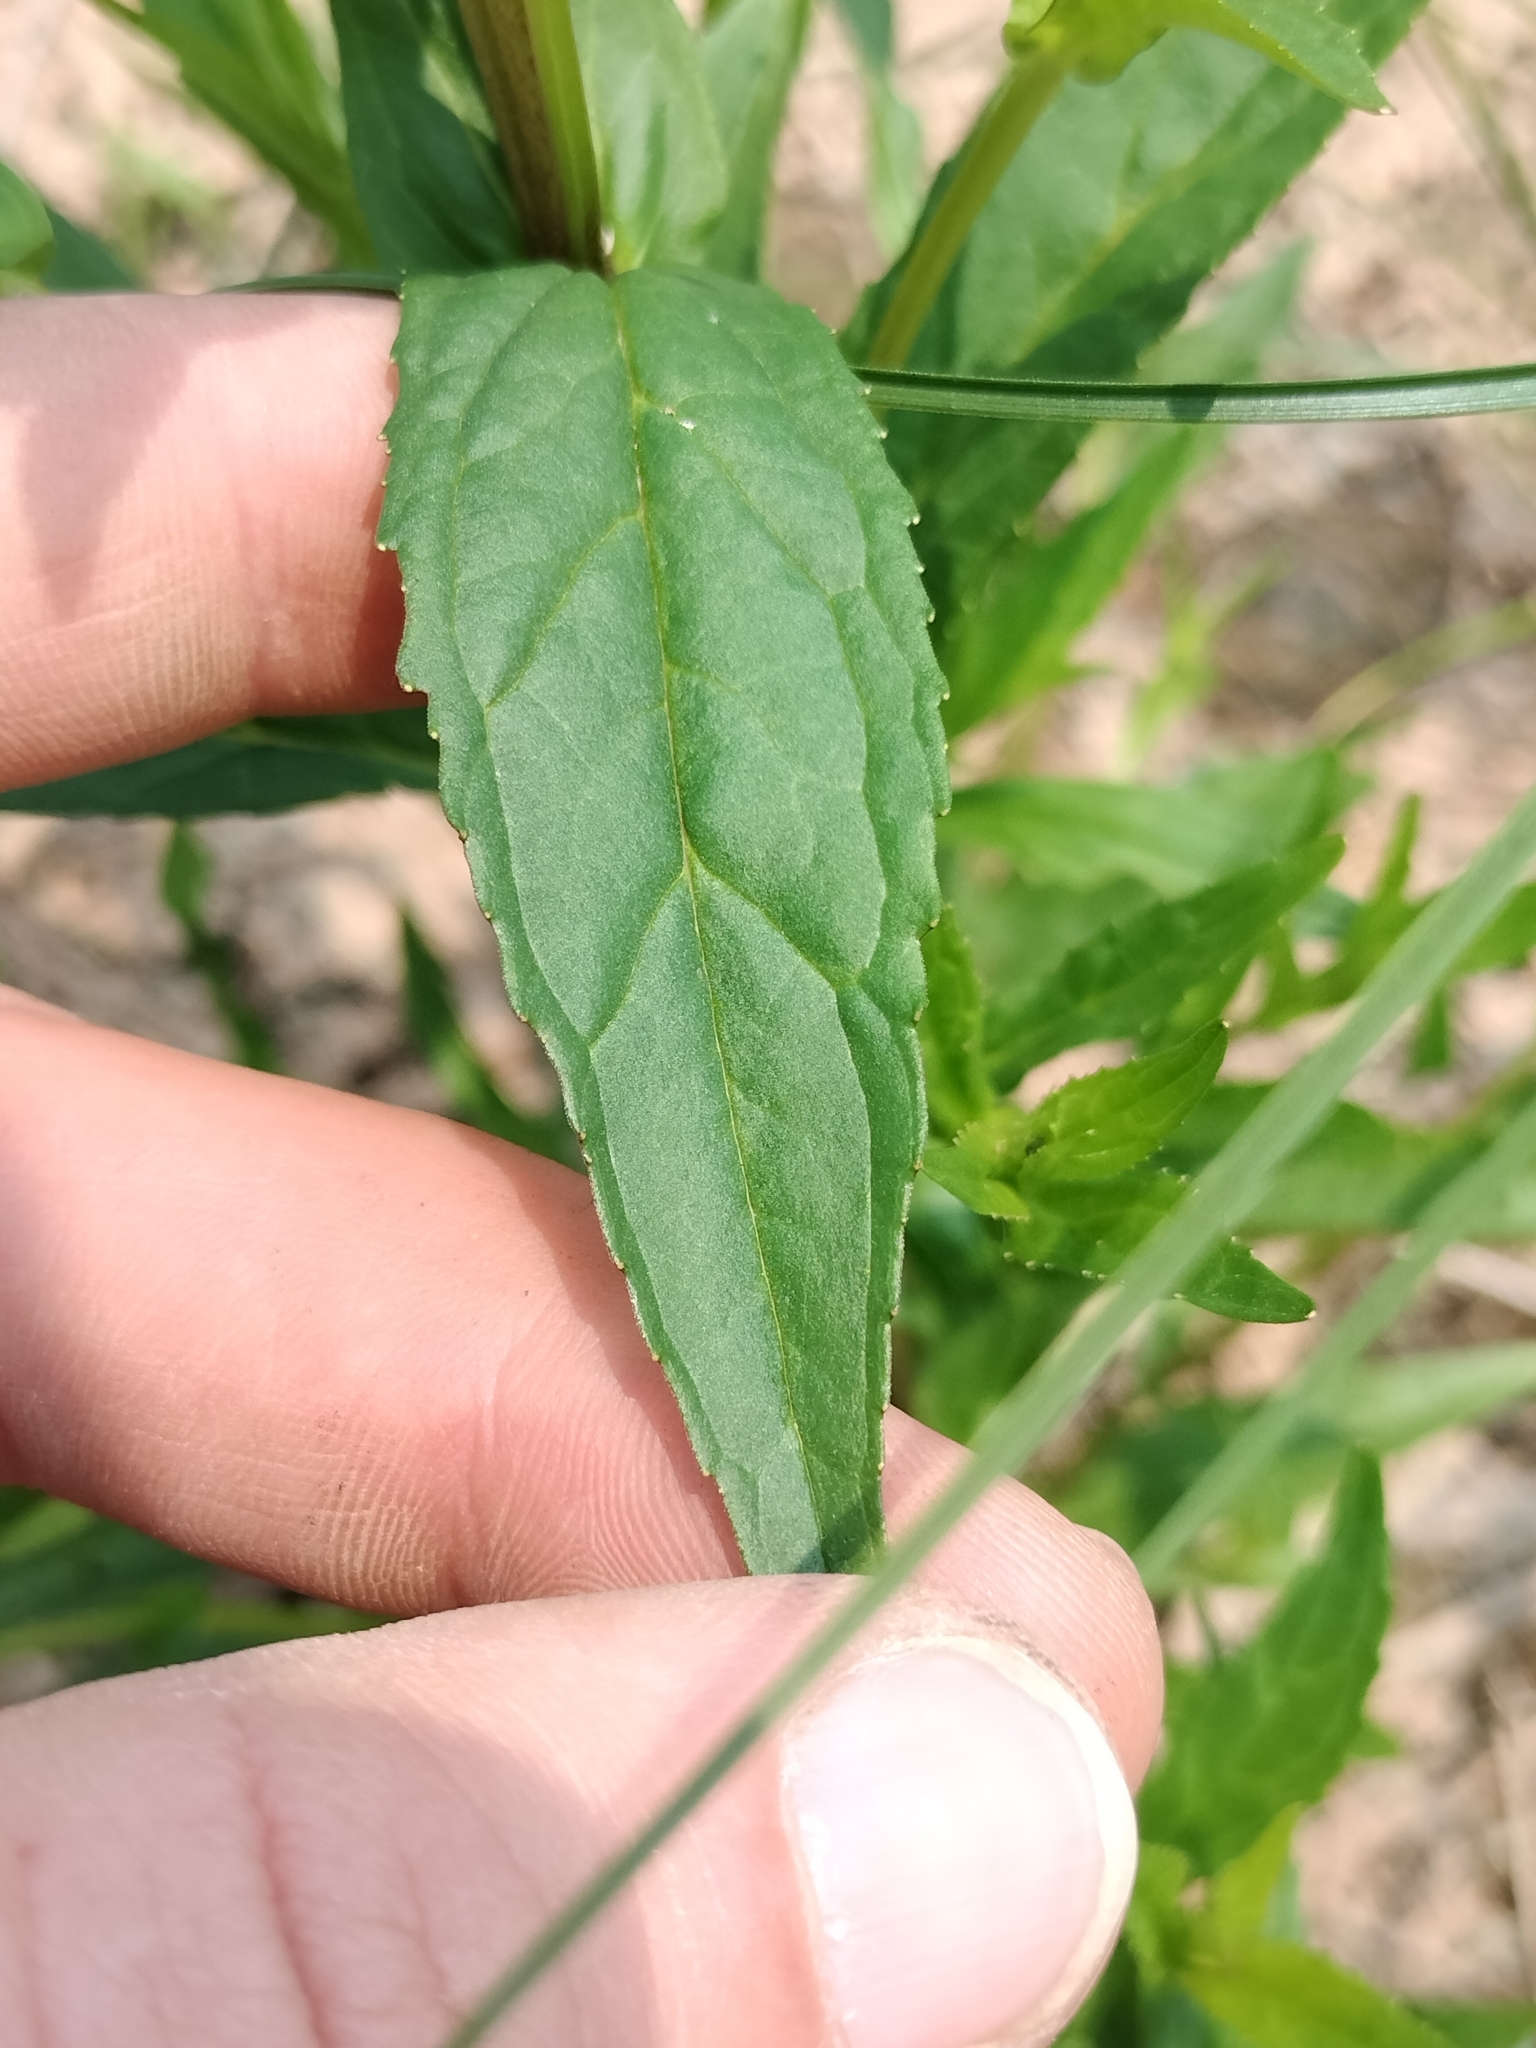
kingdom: Plantae
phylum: Tracheophyta
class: Magnoliopsida
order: Lamiales
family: Phrymaceae
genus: Mimulus
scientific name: Mimulus ringens
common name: Allegheny monkeyflower
